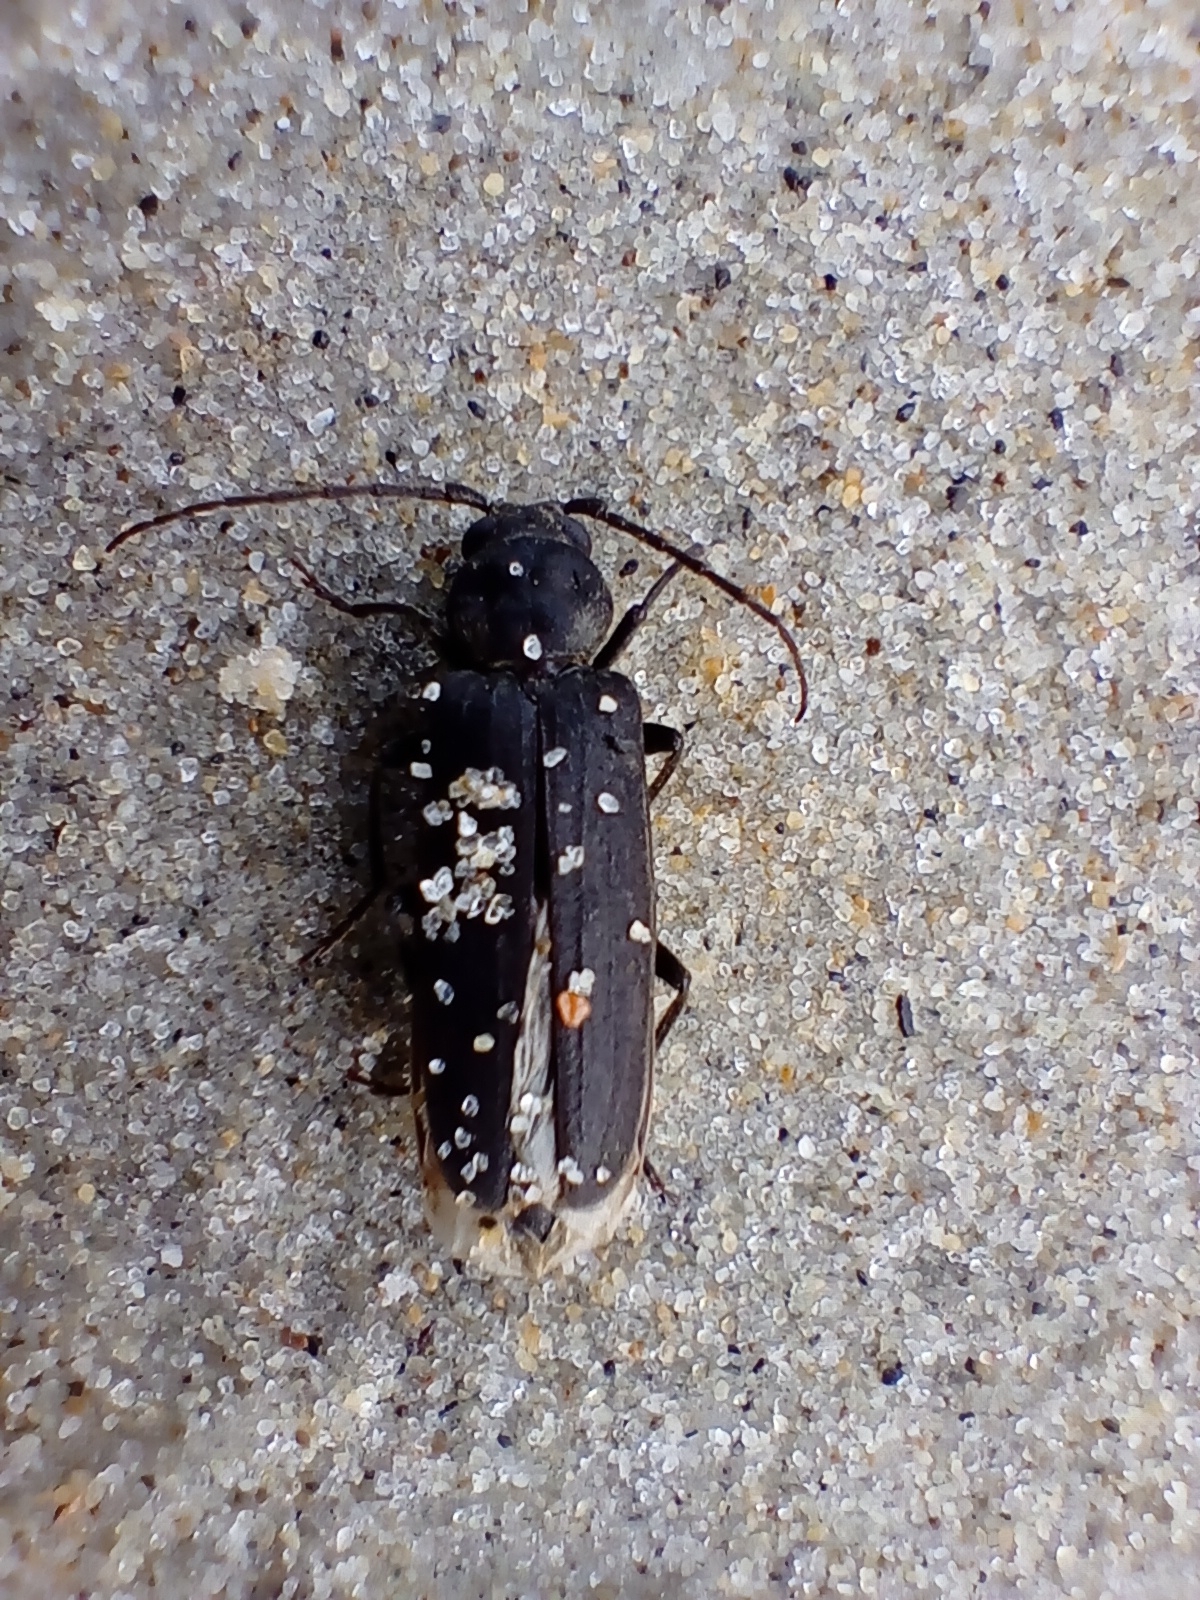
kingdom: Animalia
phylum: Arthropoda
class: Insecta
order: Coleoptera
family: Cerambycidae
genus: Arhopalus
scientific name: Arhopalus ferus
